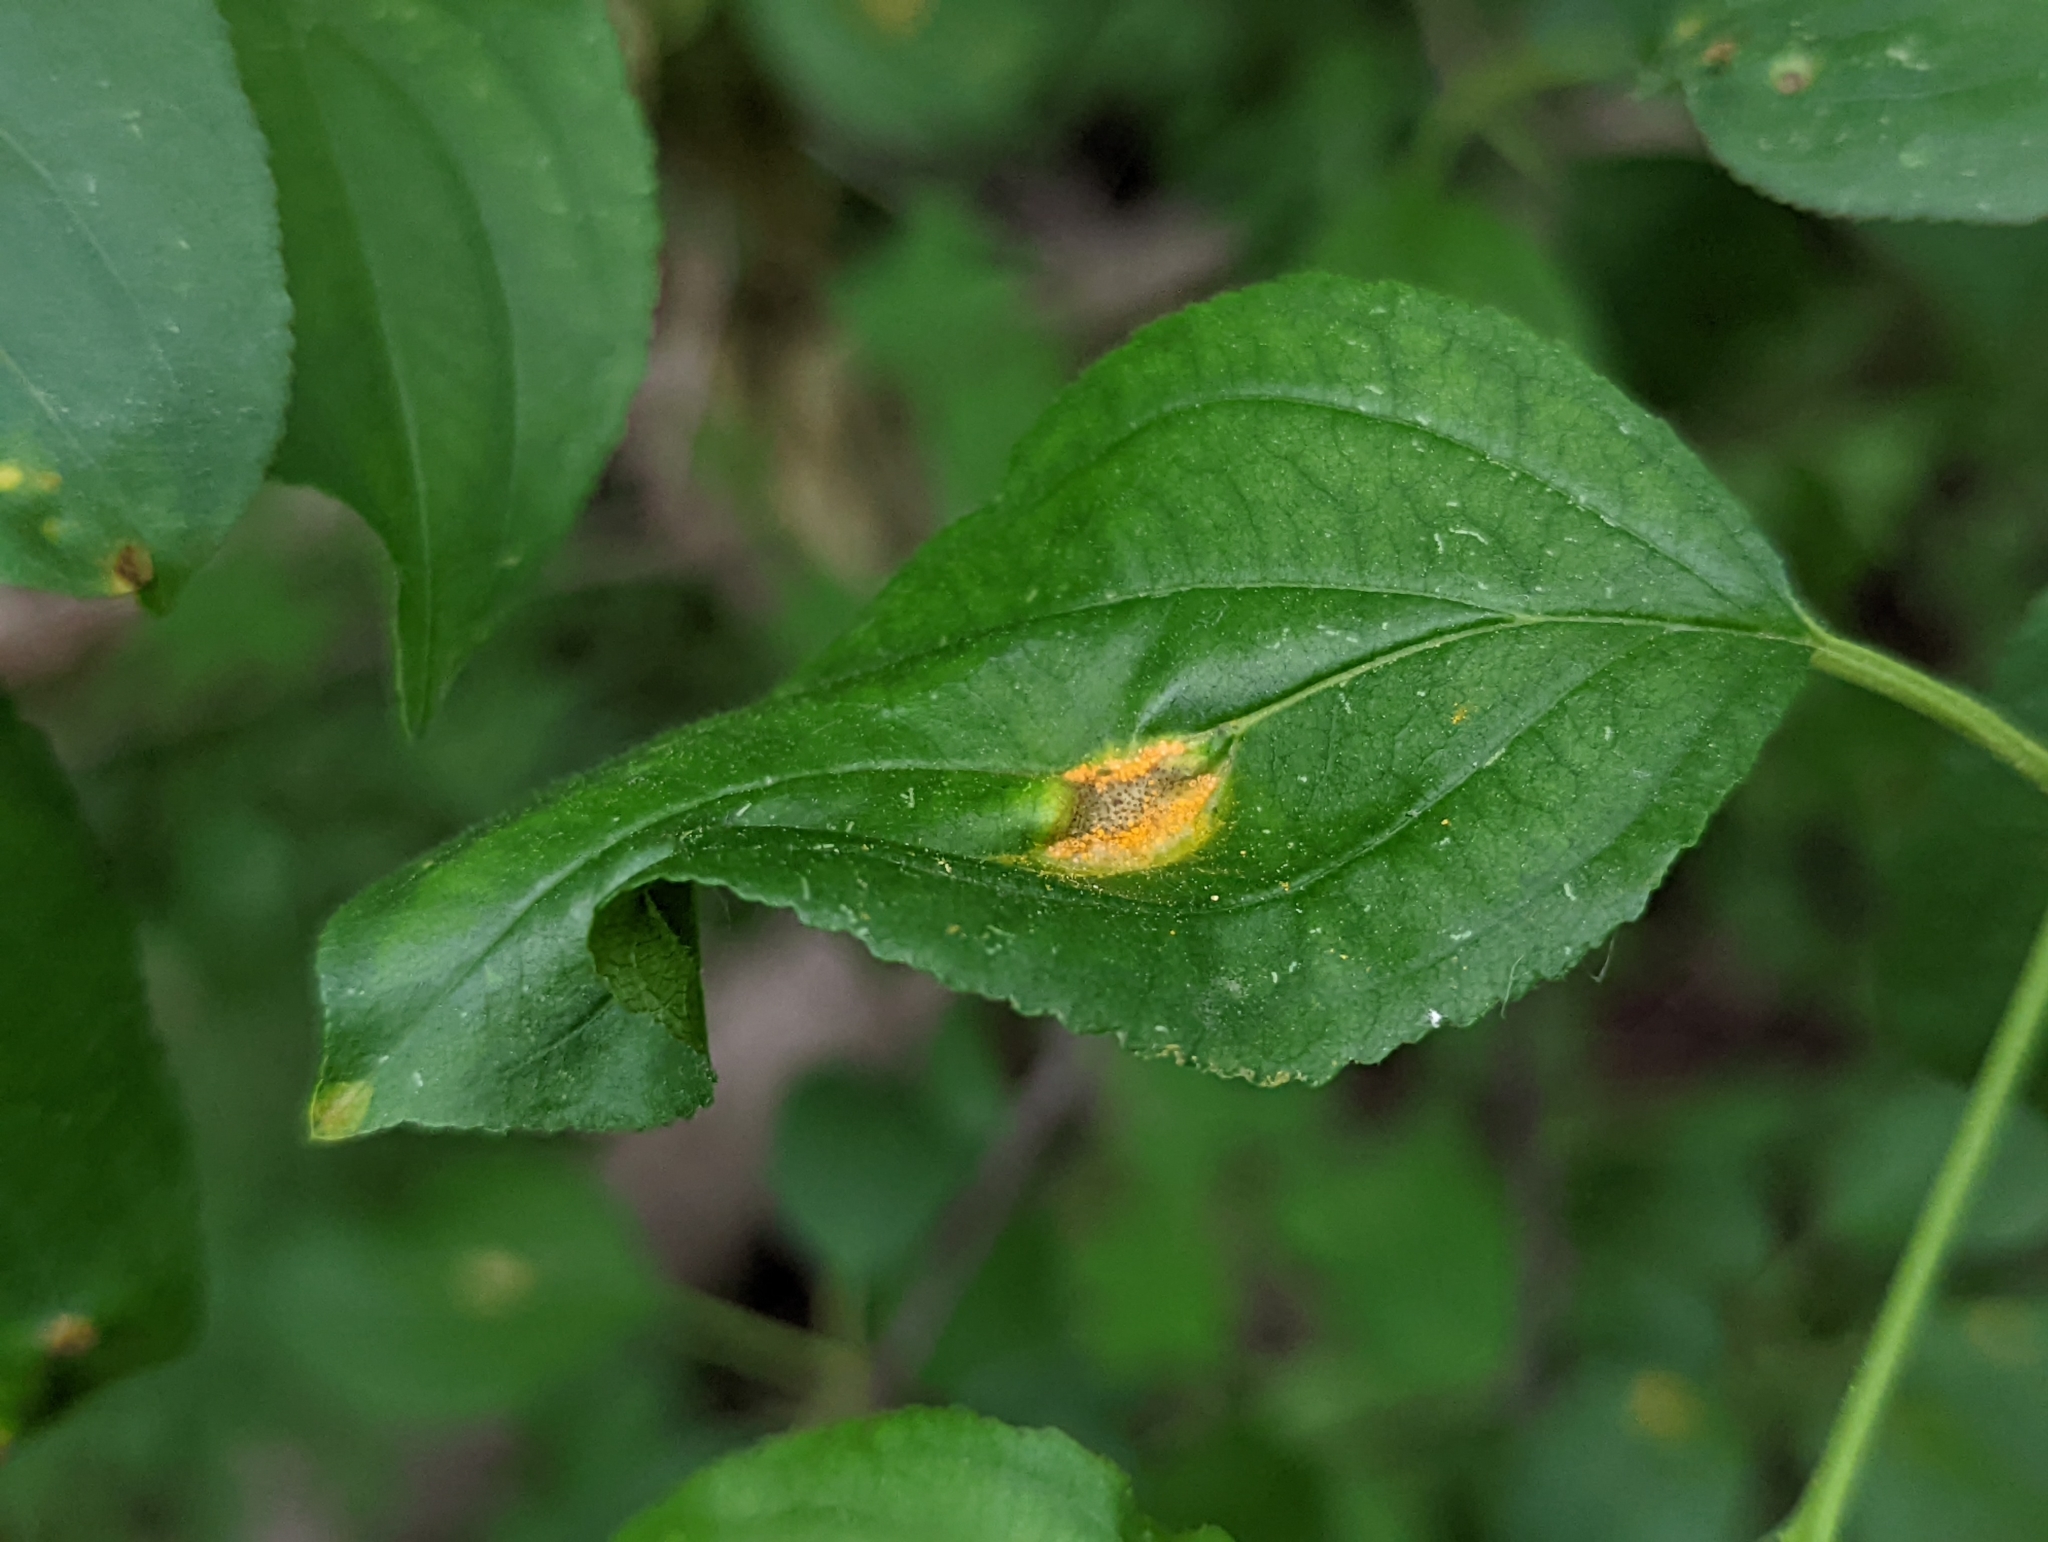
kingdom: Fungi
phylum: Basidiomycota
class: Pucciniomycetes
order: Pucciniales
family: Pucciniaceae
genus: Puccinia
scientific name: Puccinia coronata
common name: Crown rust
